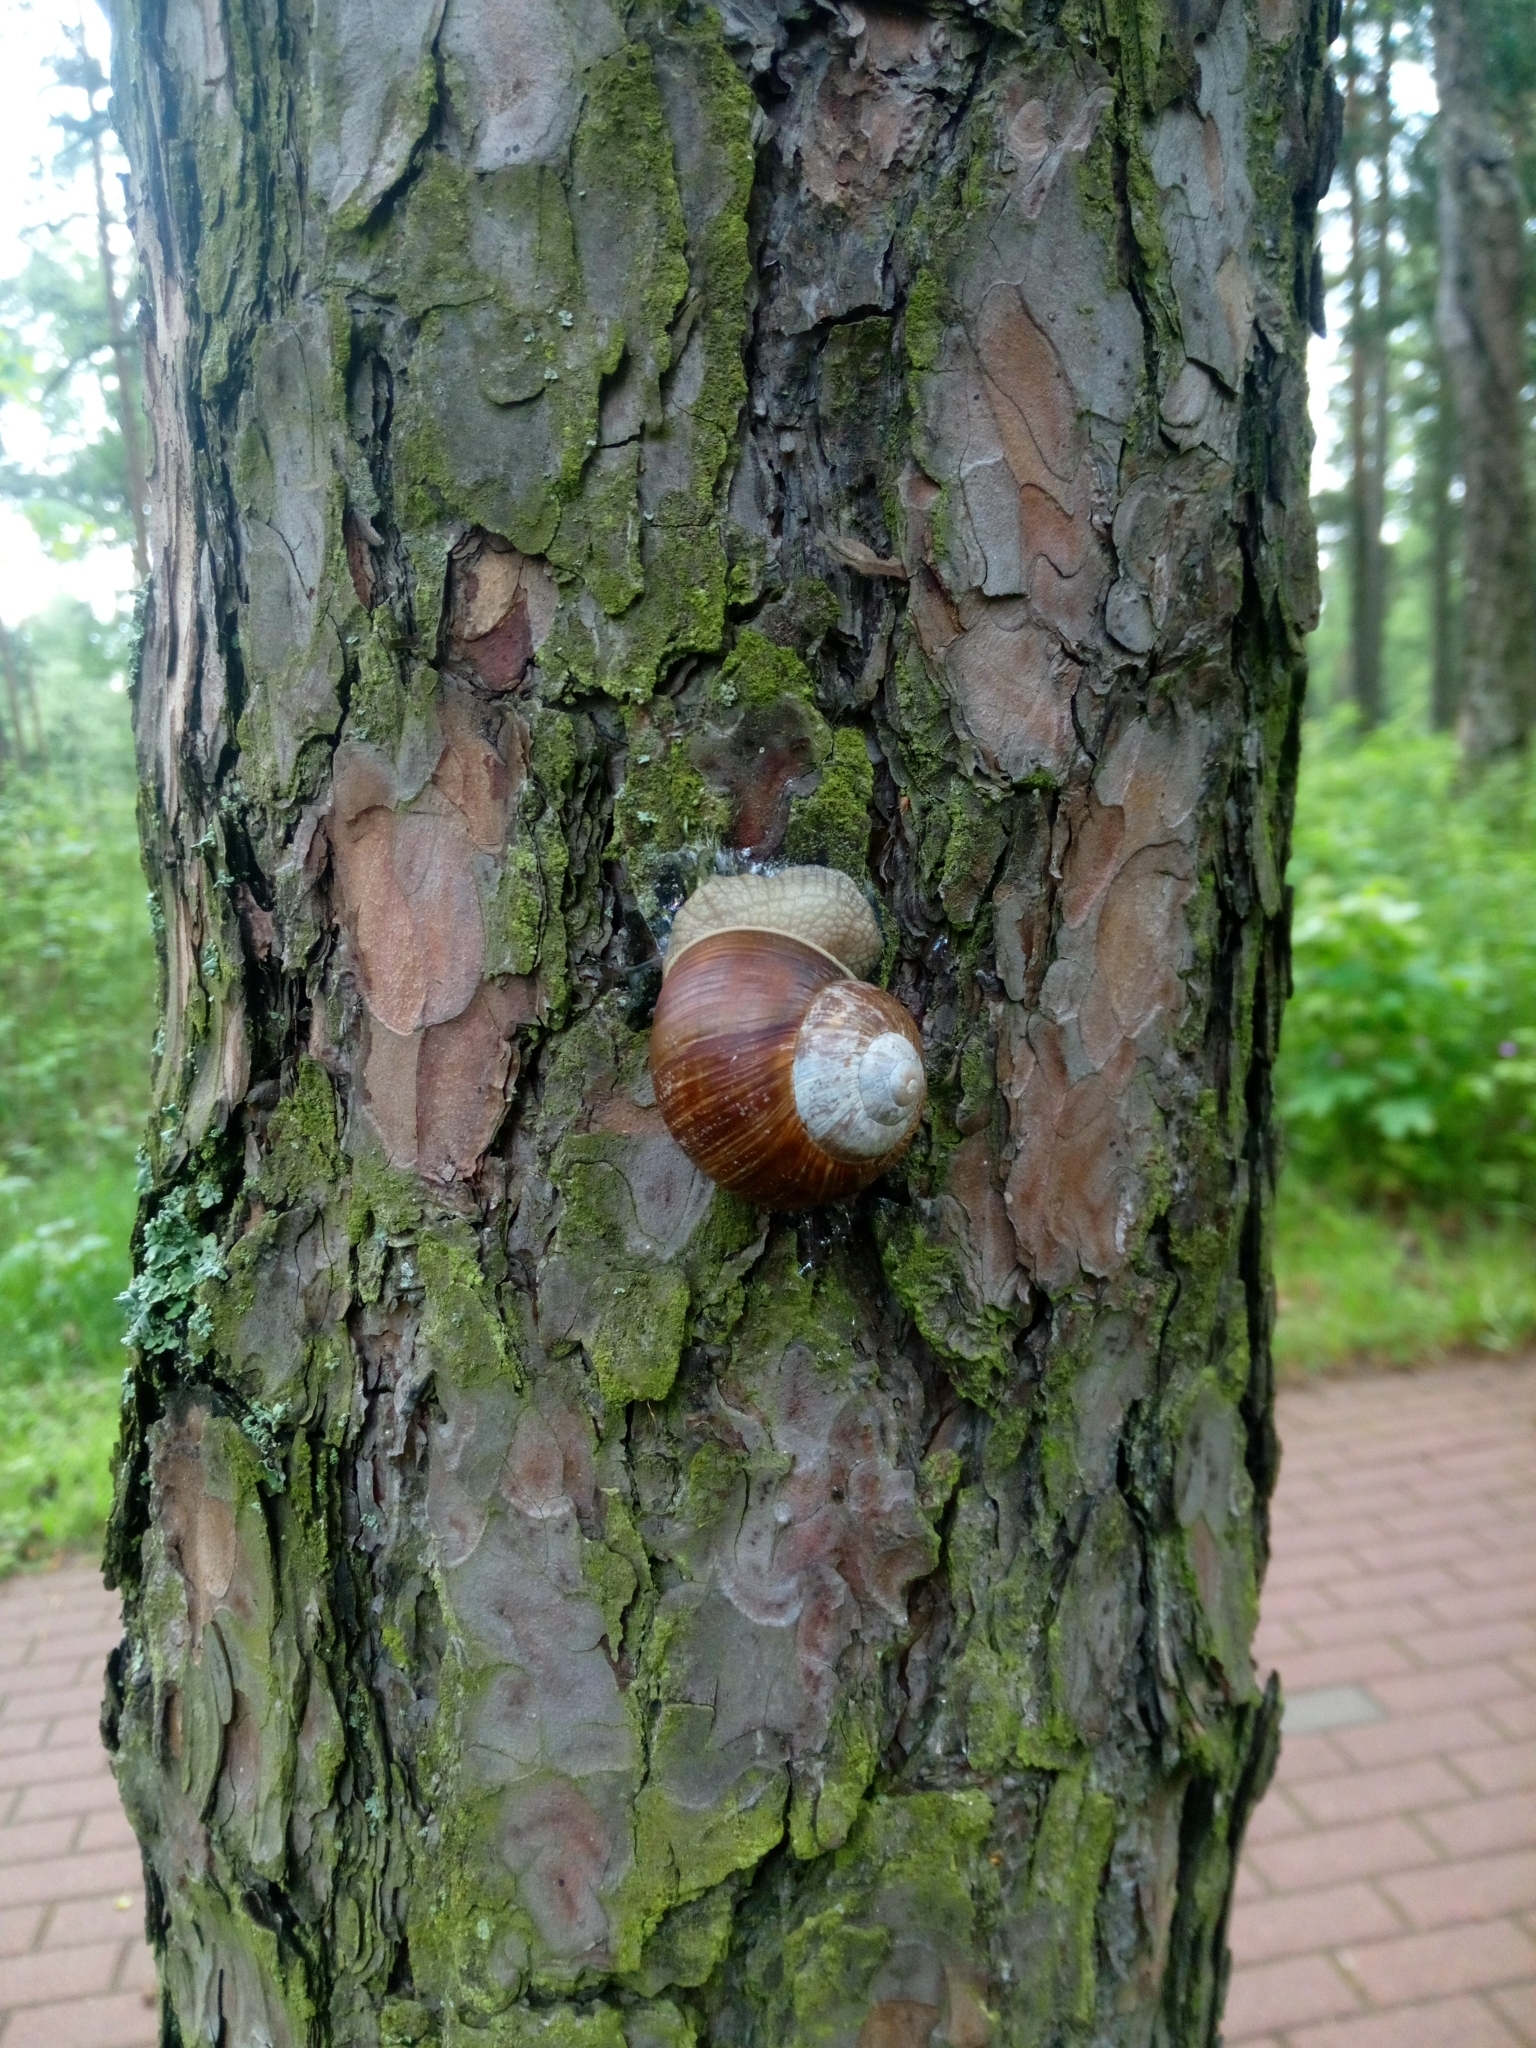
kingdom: Animalia
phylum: Mollusca
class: Gastropoda
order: Stylommatophora
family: Helicidae
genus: Helix
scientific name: Helix pomatia
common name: Roman snail
